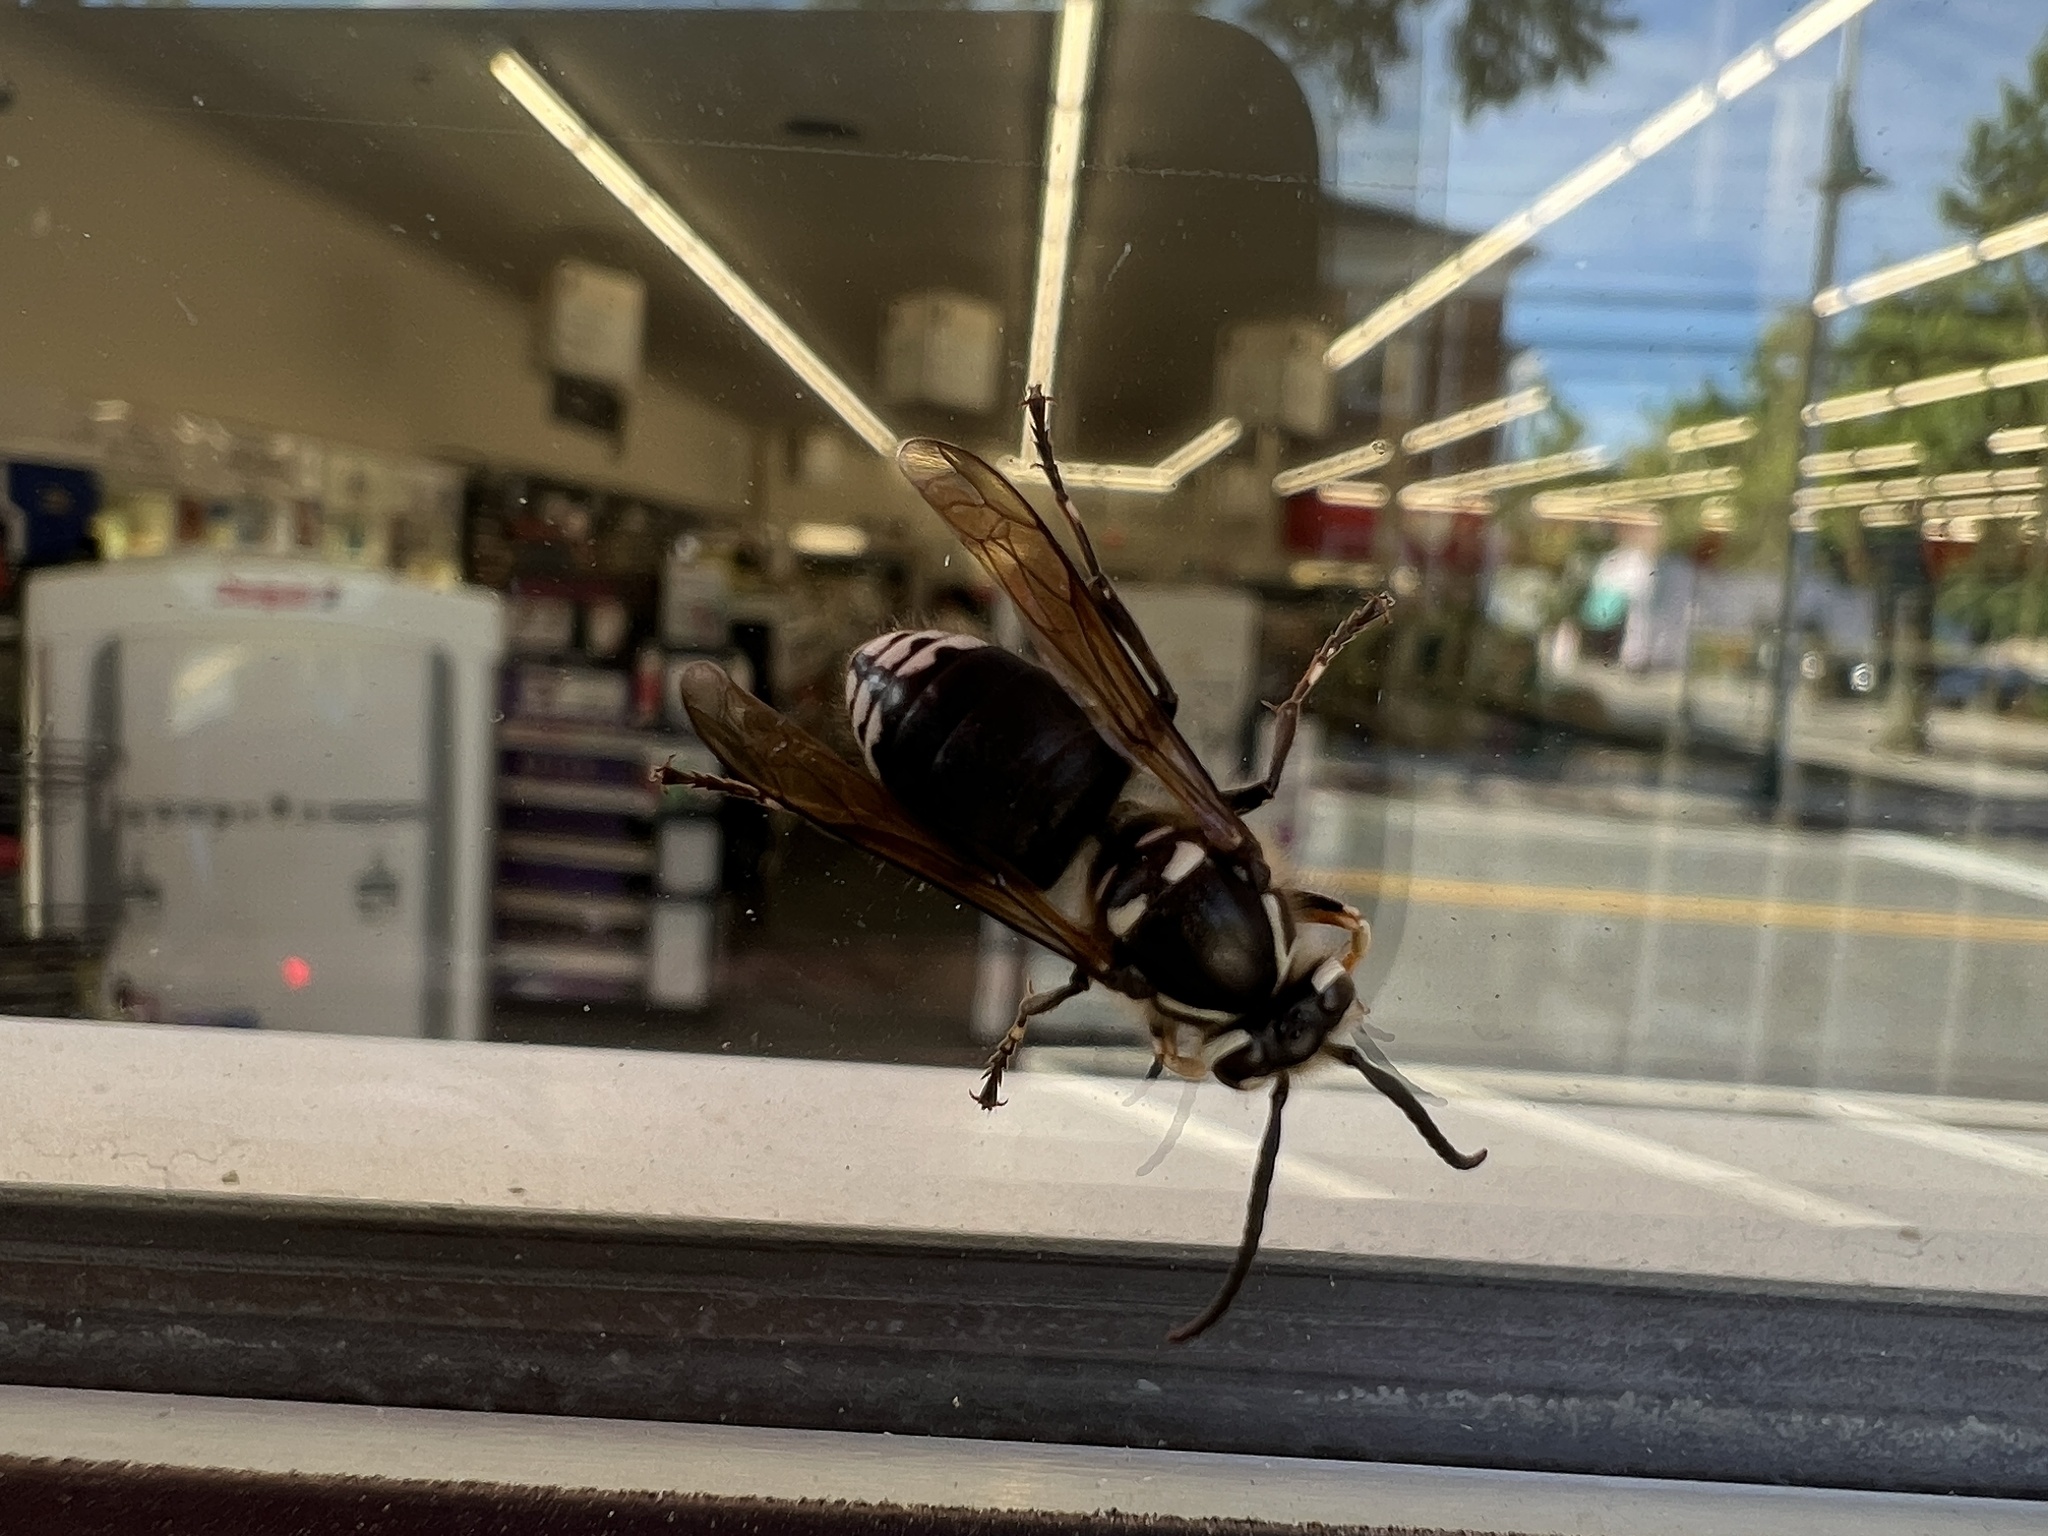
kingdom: Animalia
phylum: Arthropoda
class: Insecta
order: Hymenoptera
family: Vespidae
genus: Dolichovespula
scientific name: Dolichovespula maculata
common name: Bald-faced hornet
